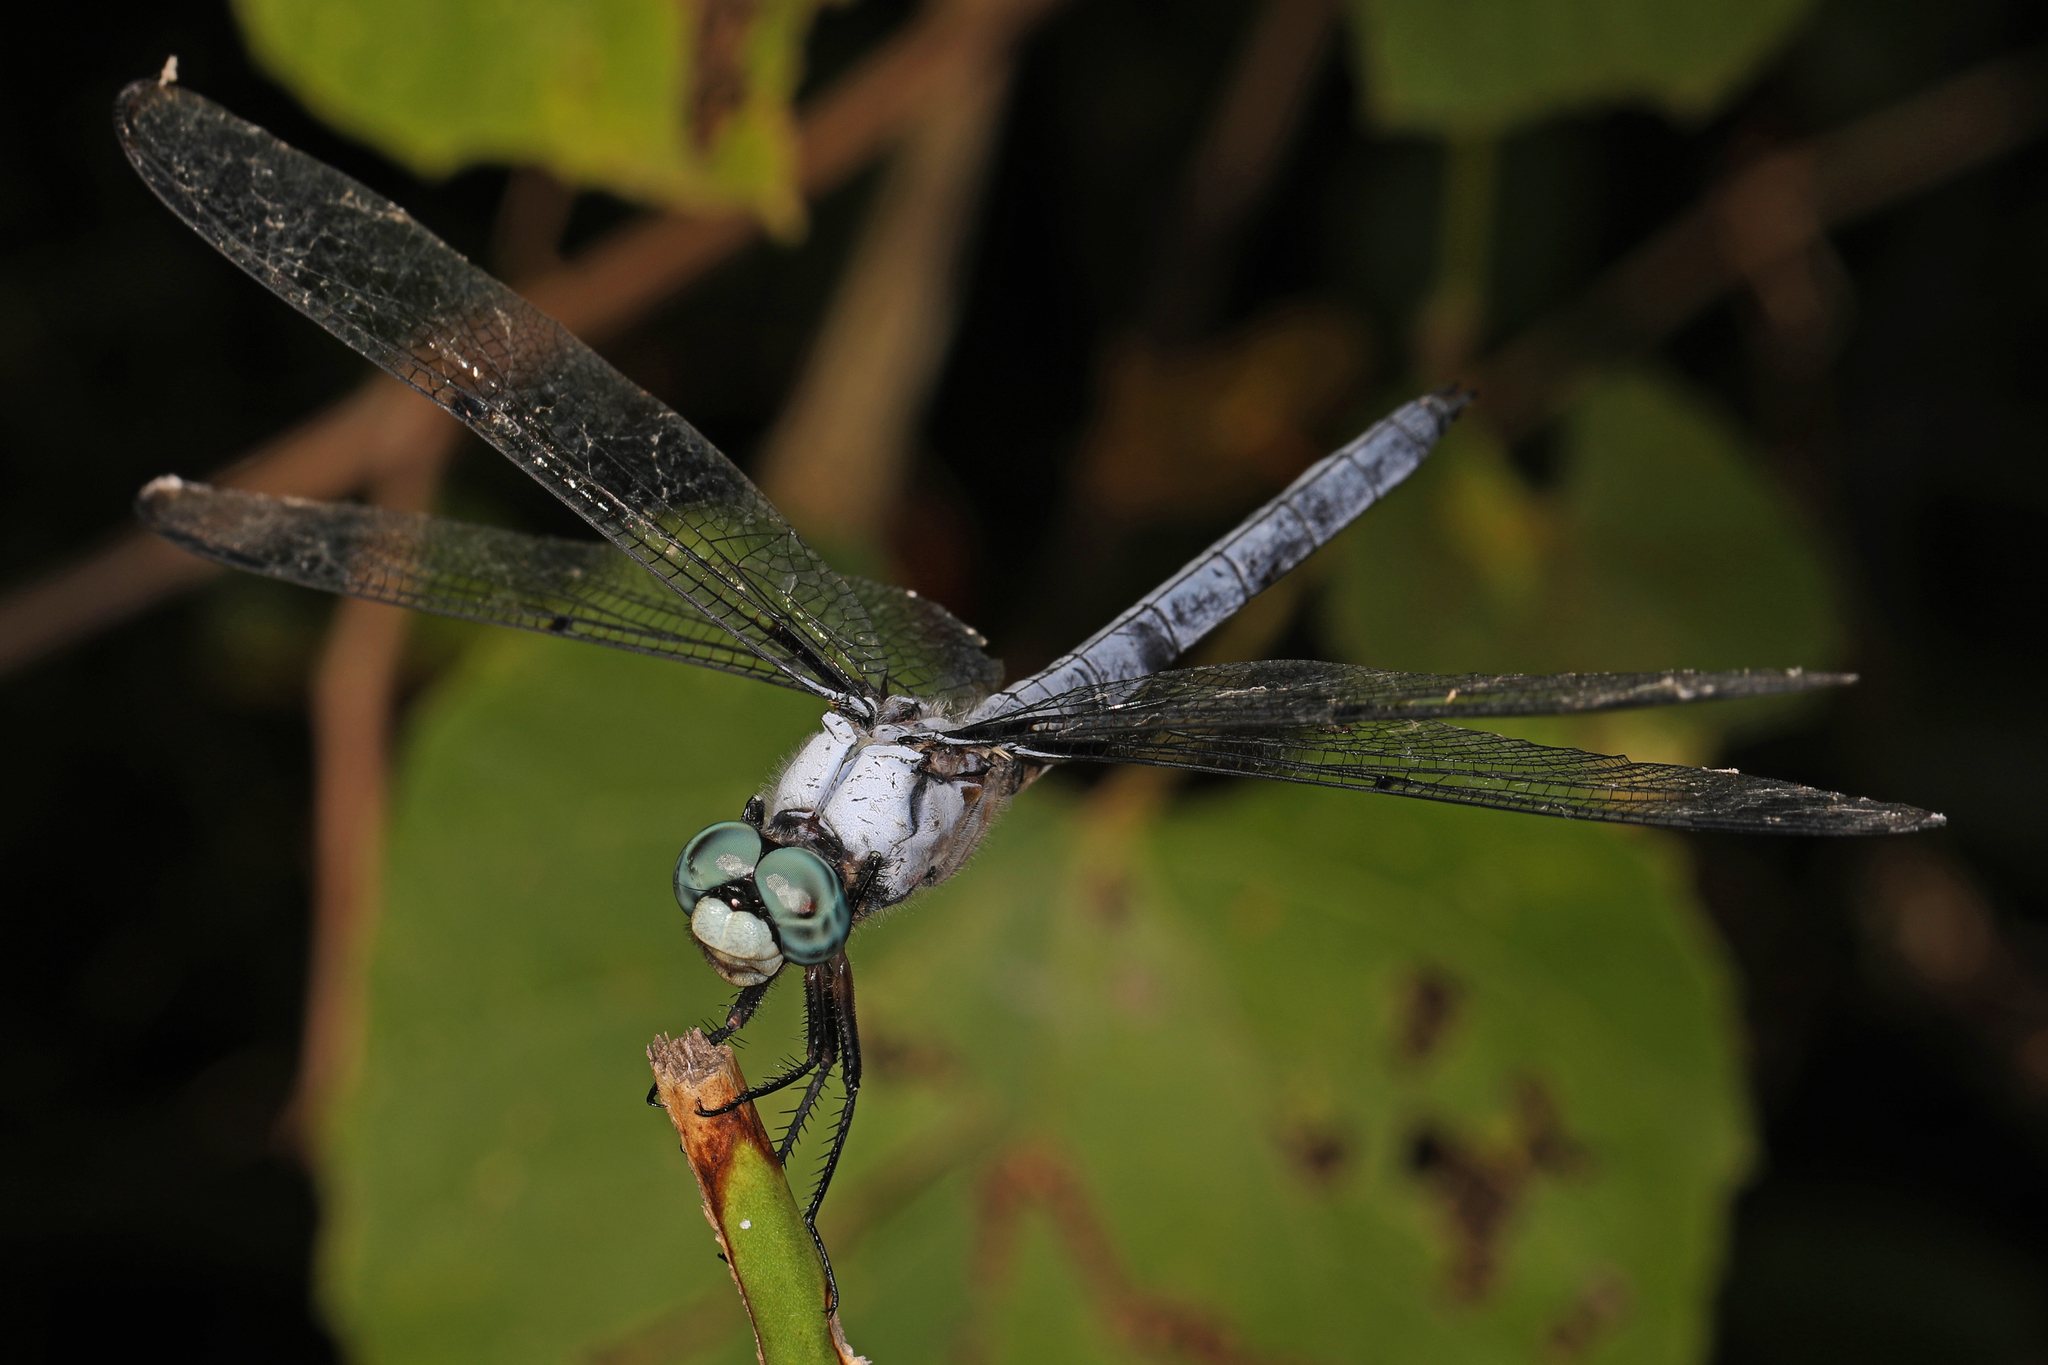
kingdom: Animalia
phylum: Arthropoda
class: Insecta
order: Odonata
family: Libellulidae
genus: Libellula
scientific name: Libellula vibrans
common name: Great blue skimmer
